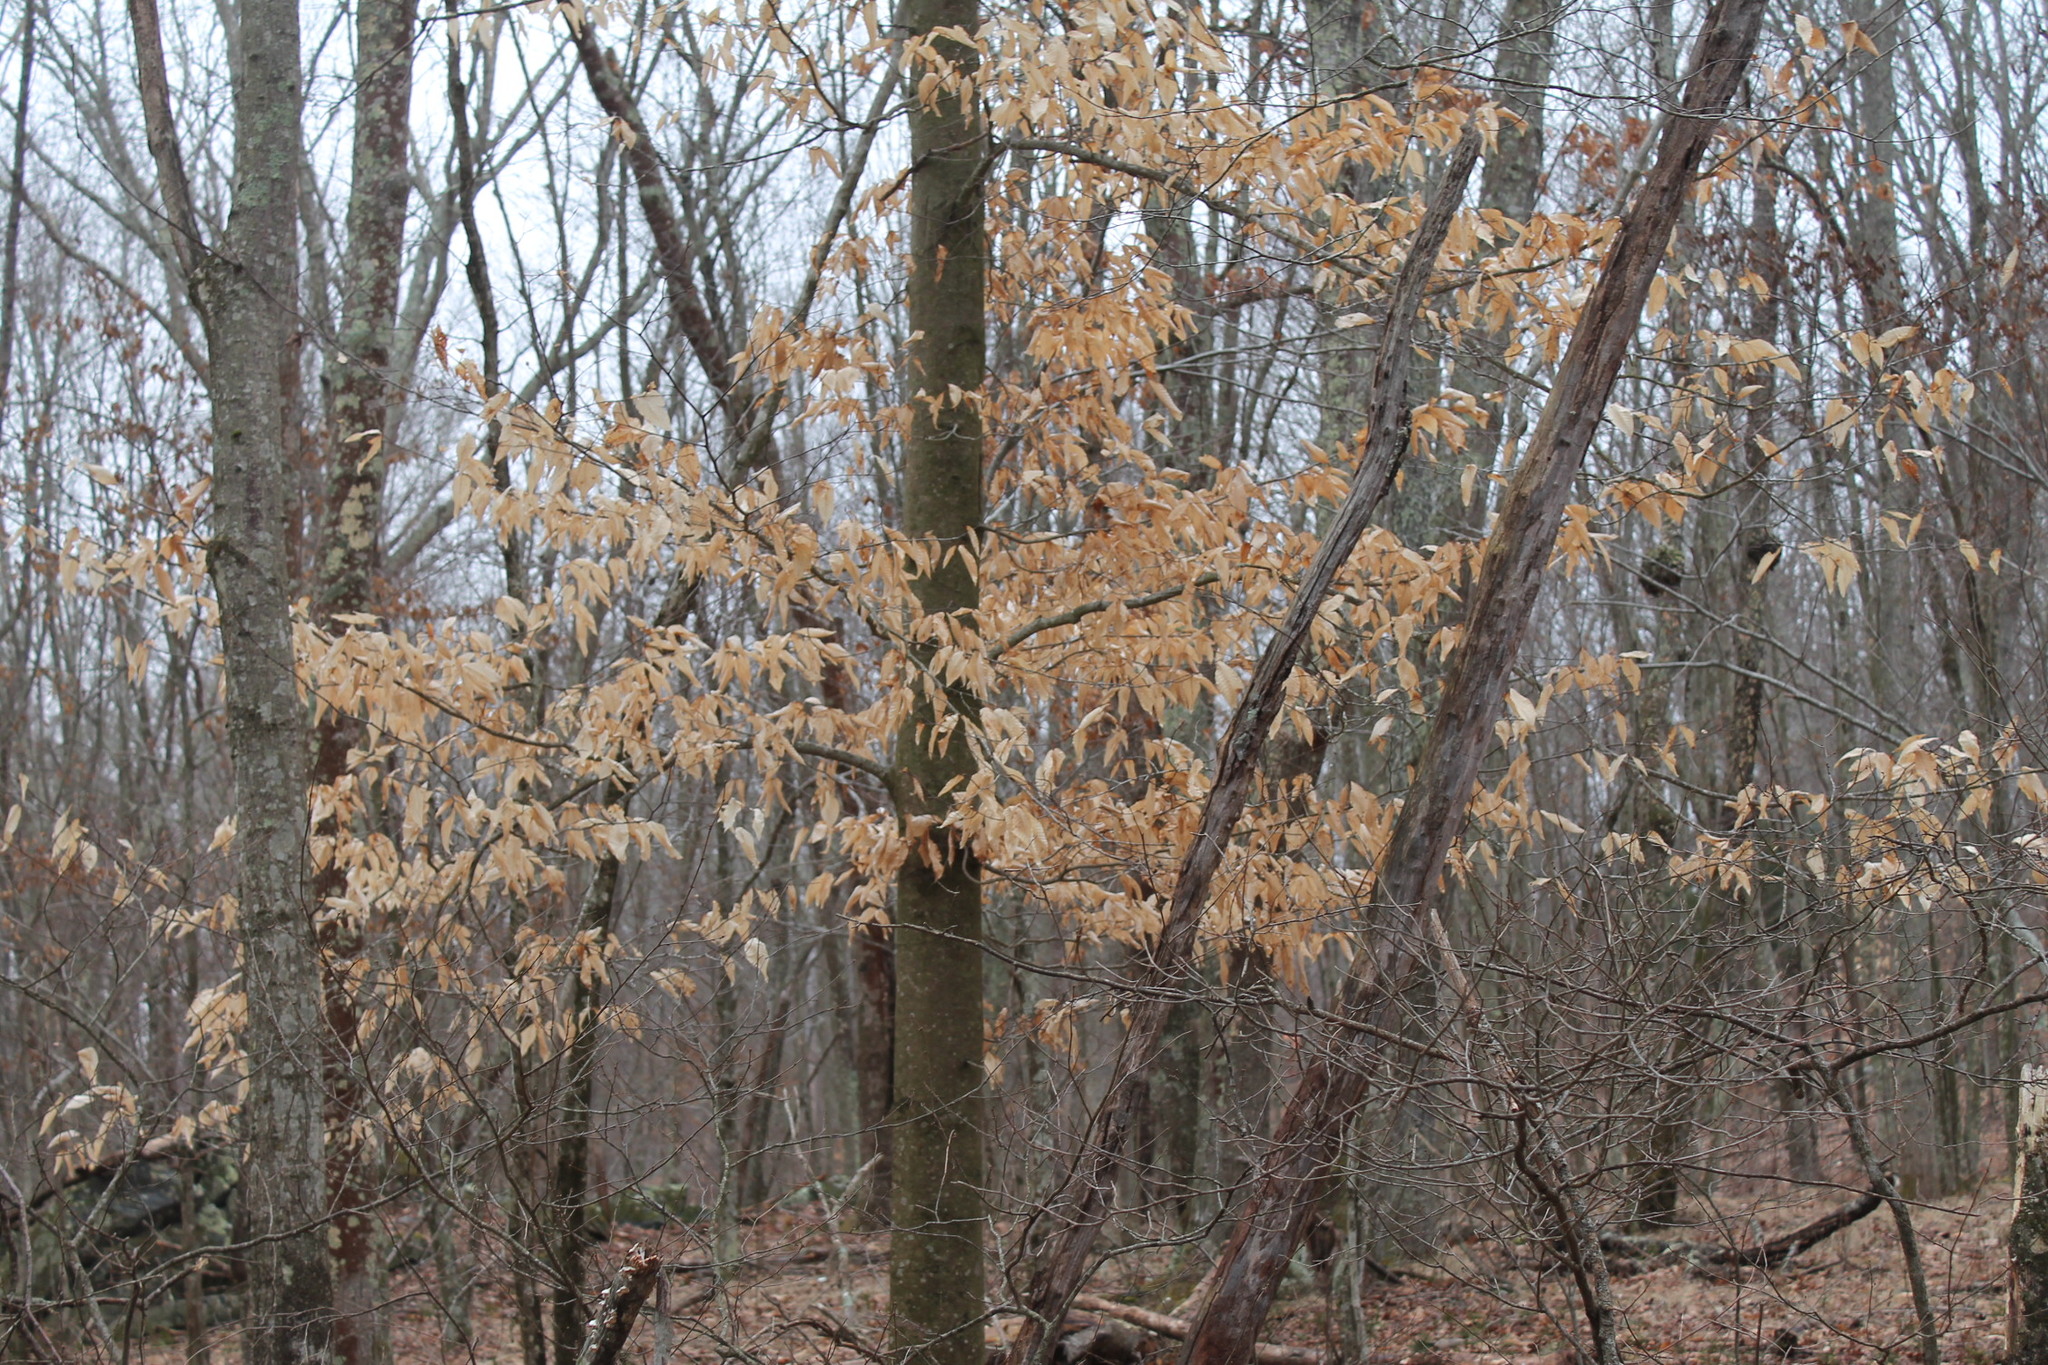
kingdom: Plantae
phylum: Tracheophyta
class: Magnoliopsida
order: Fagales
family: Fagaceae
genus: Fagus
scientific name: Fagus grandifolia
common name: American beech
